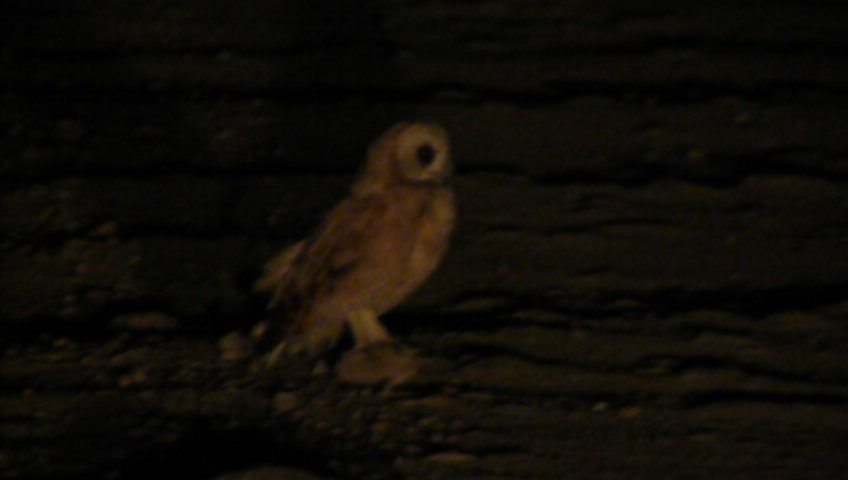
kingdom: Animalia
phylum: Chordata
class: Aves
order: Strigiformes
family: Strigidae
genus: Asio
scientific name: Asio capensis
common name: Marsh owl
